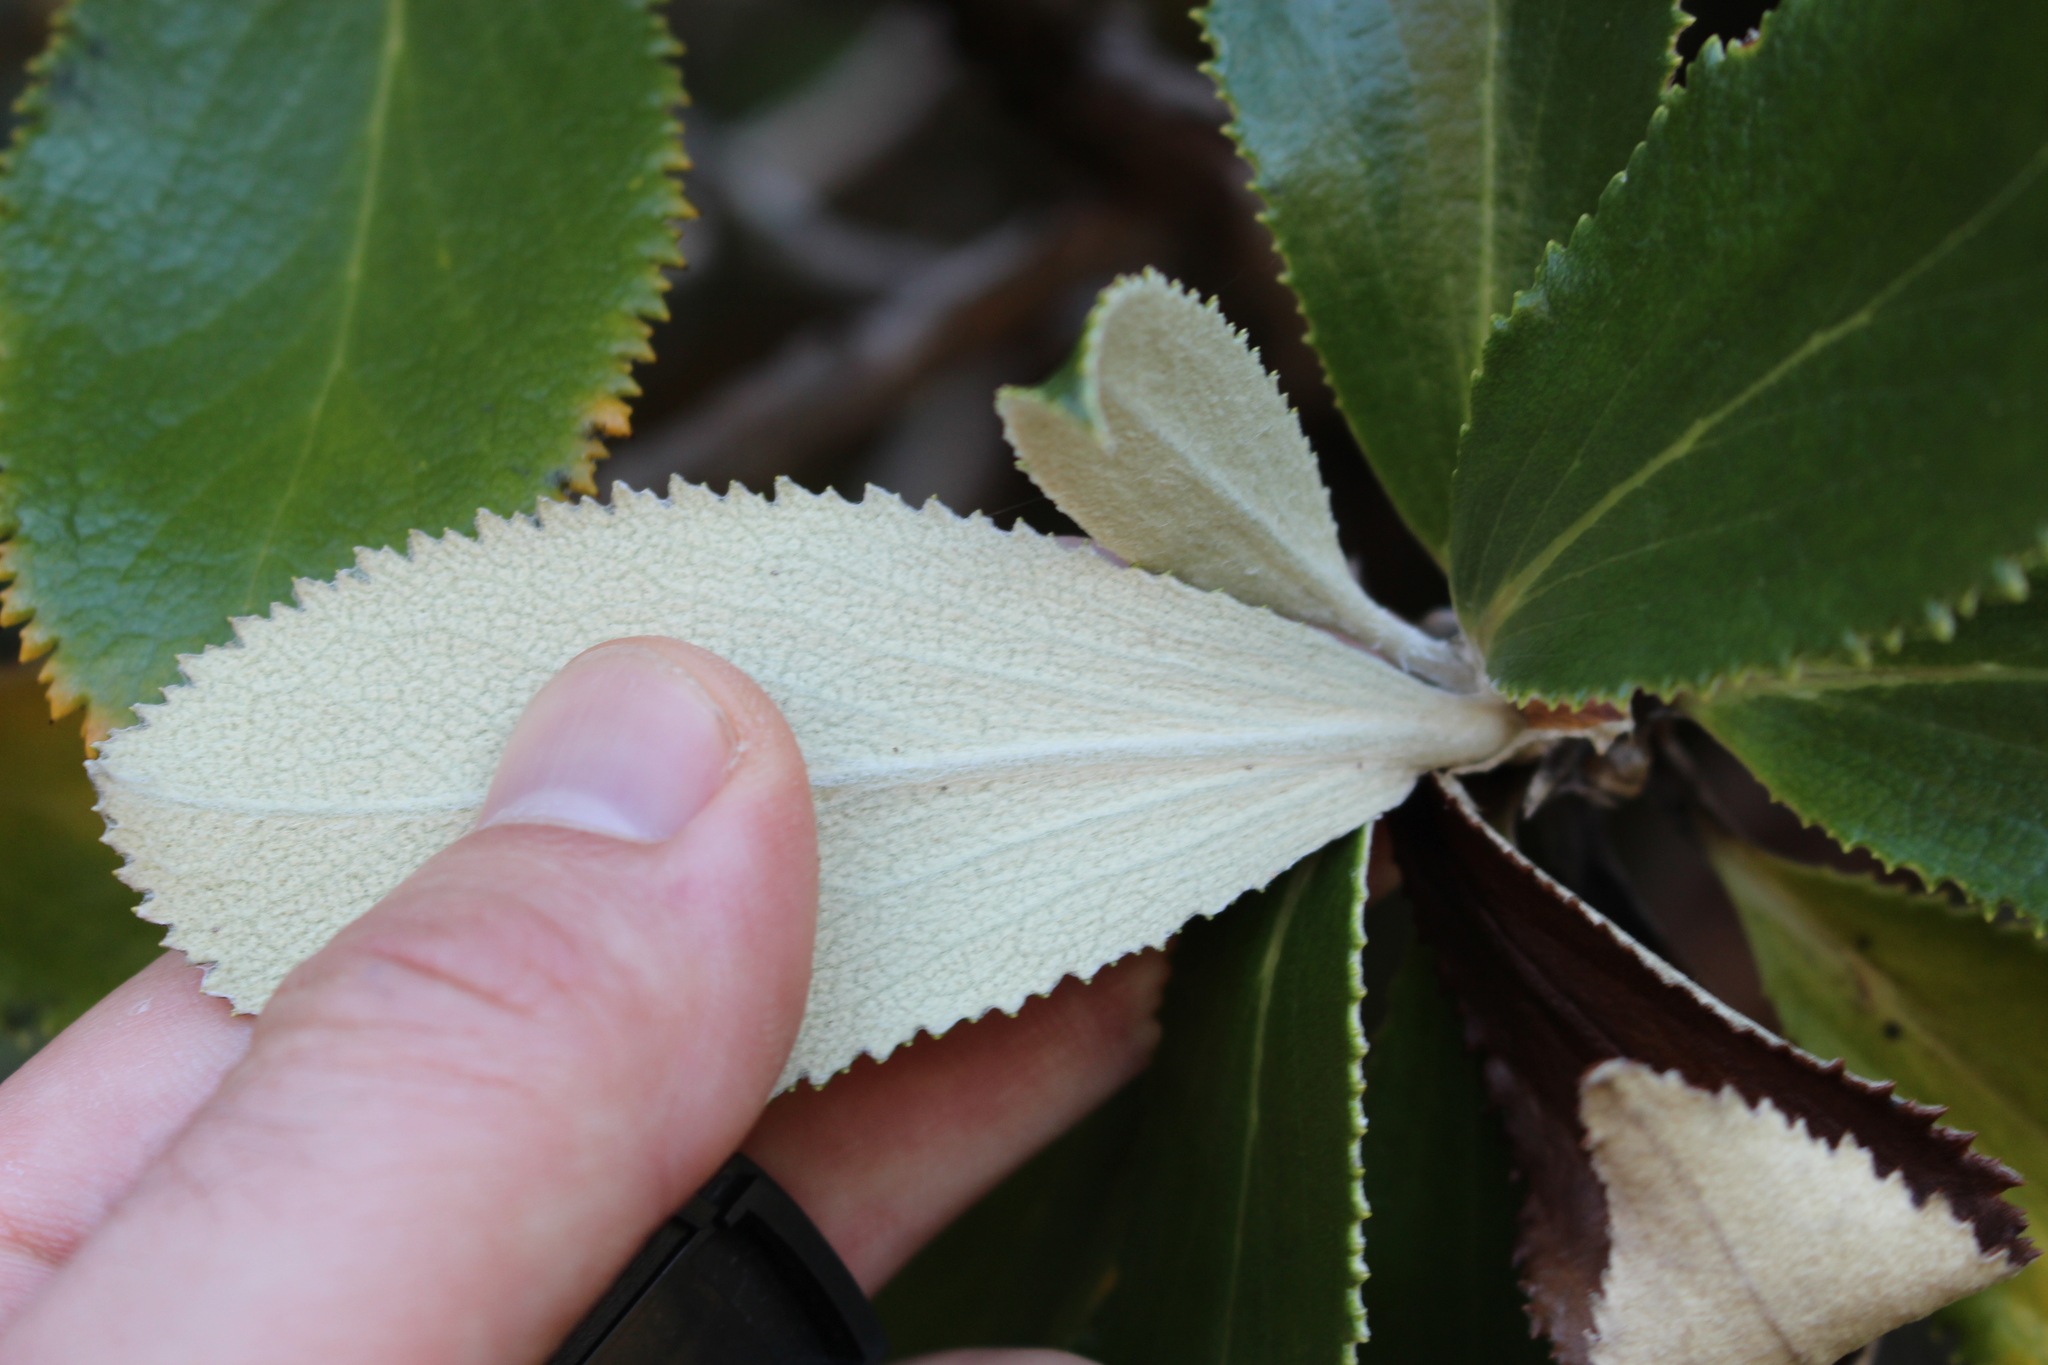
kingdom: Plantae
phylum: Tracheophyta
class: Magnoliopsida
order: Asterales
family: Asteraceae
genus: Macrolearia
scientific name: Macrolearia colensoi
